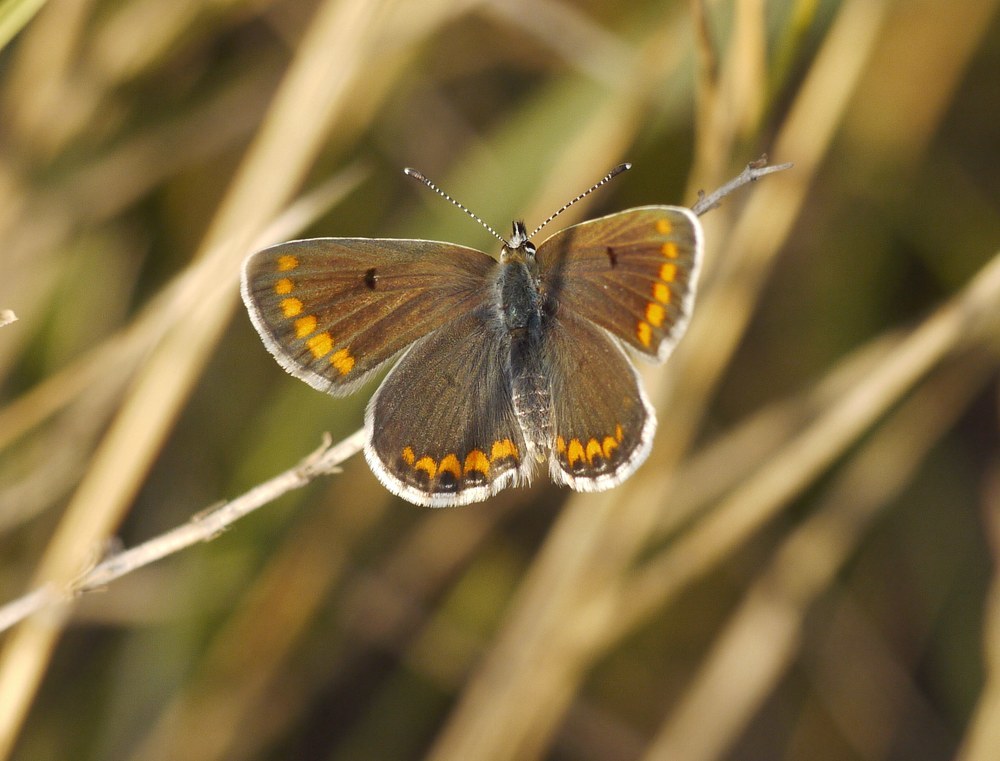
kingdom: Animalia
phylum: Arthropoda
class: Insecta
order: Lepidoptera
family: Lycaenidae
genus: Aricia
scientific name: Aricia agestis
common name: Brown argus
